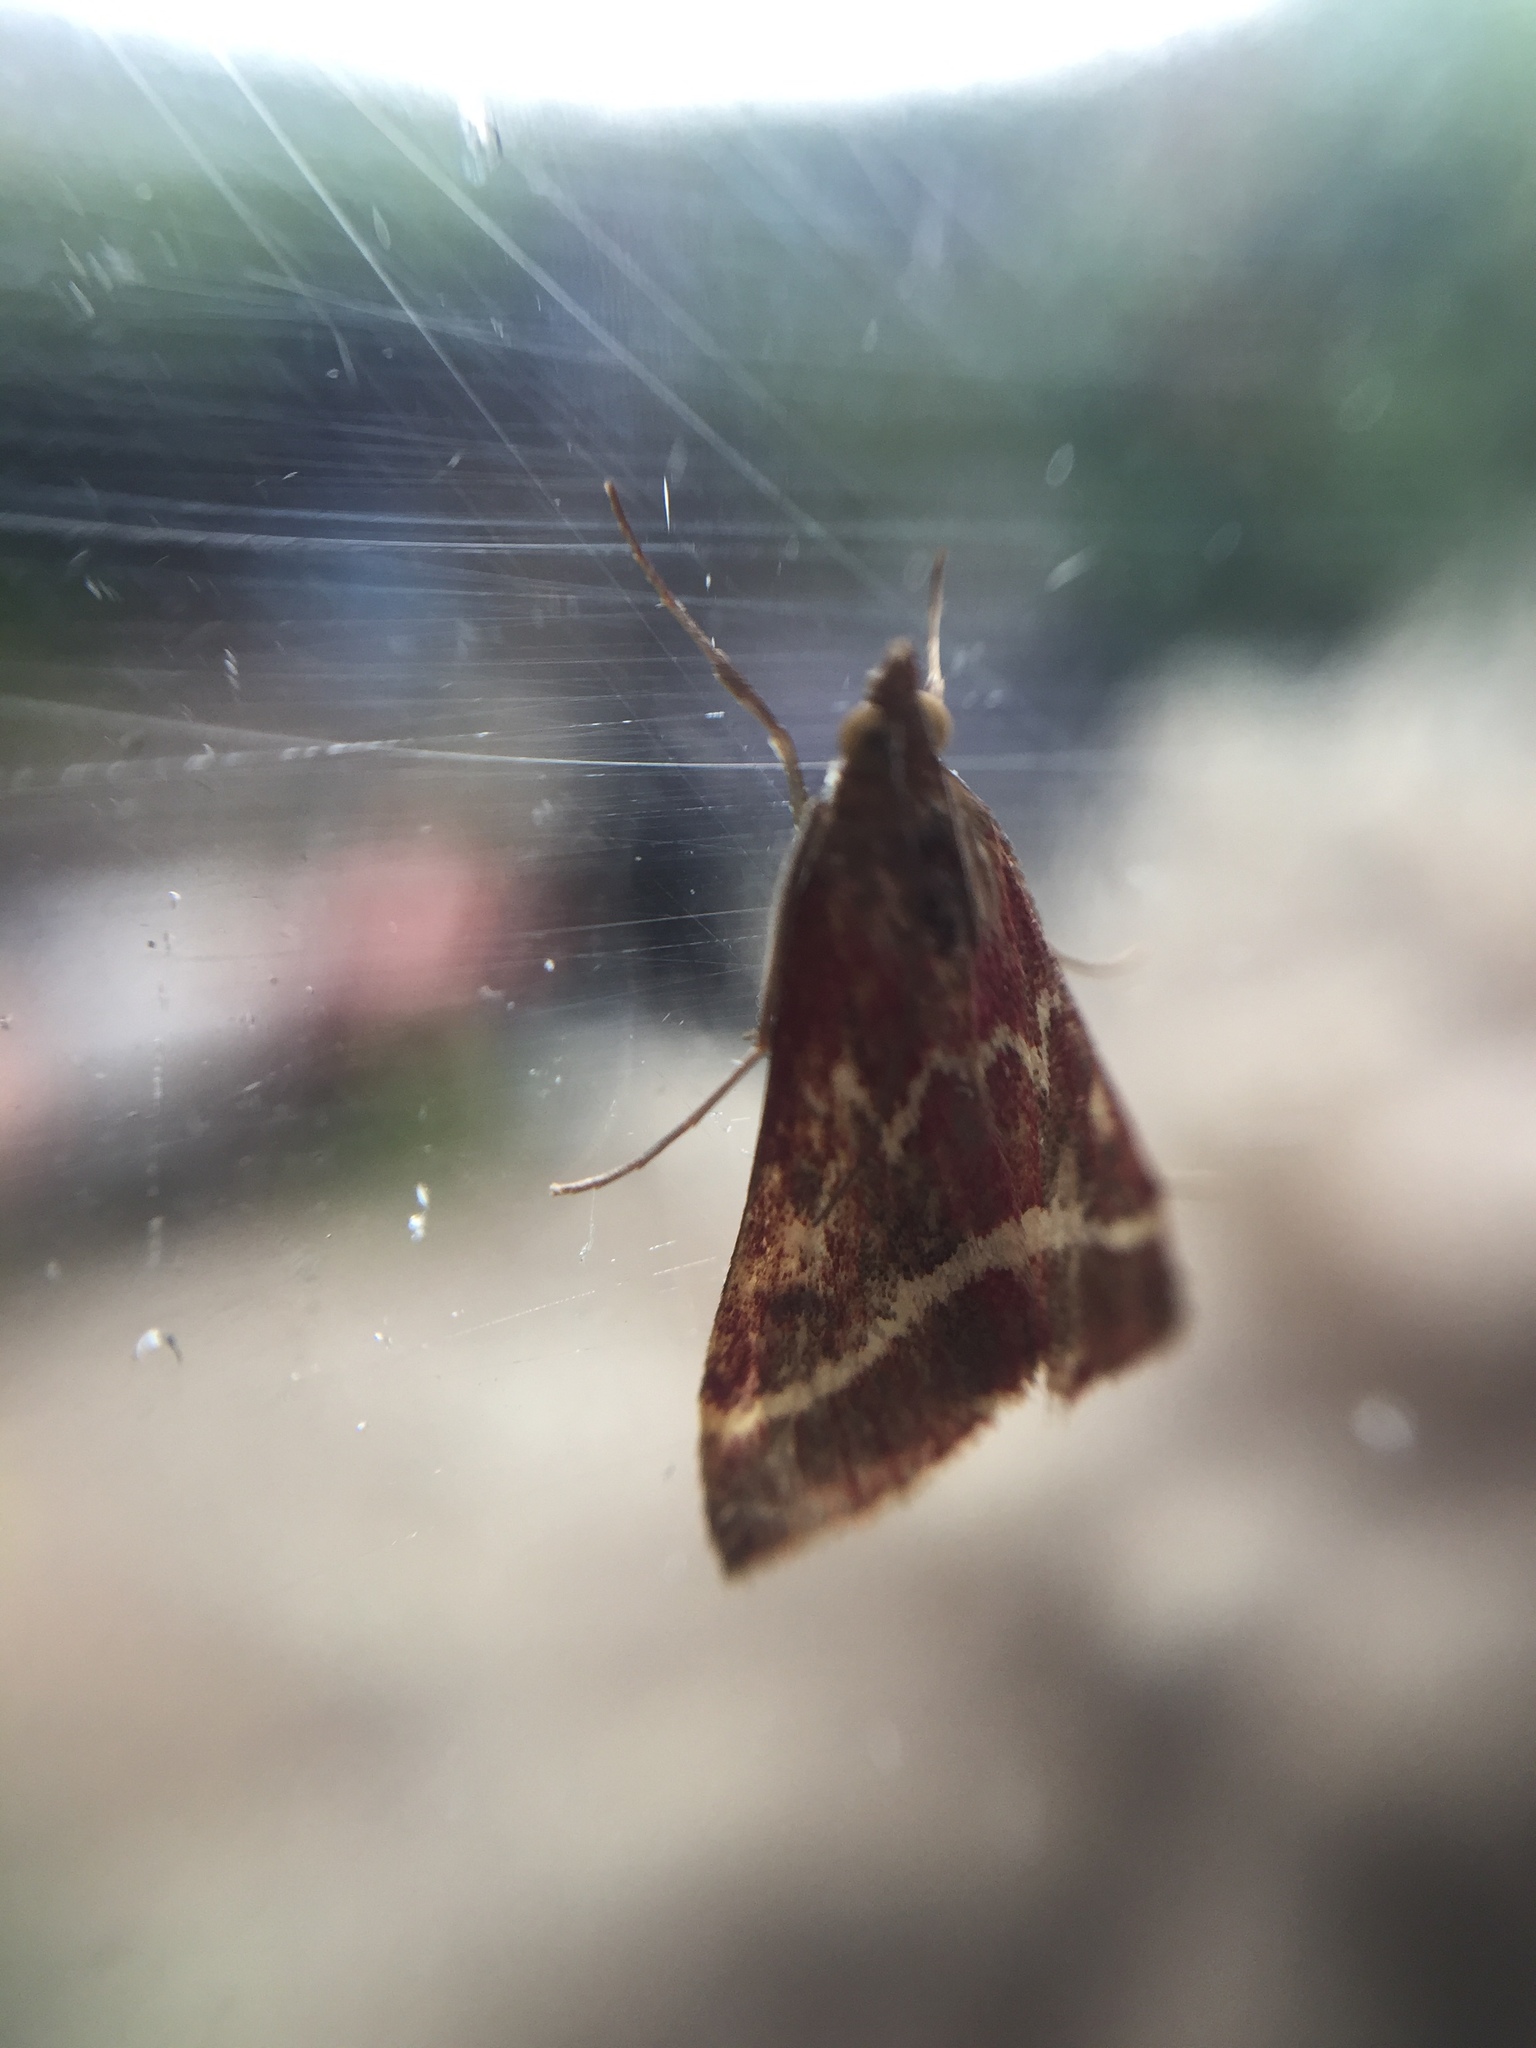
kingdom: Animalia
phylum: Arthropoda
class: Insecta
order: Lepidoptera
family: Crambidae
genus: Pyrausta
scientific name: Pyrausta volupialis
